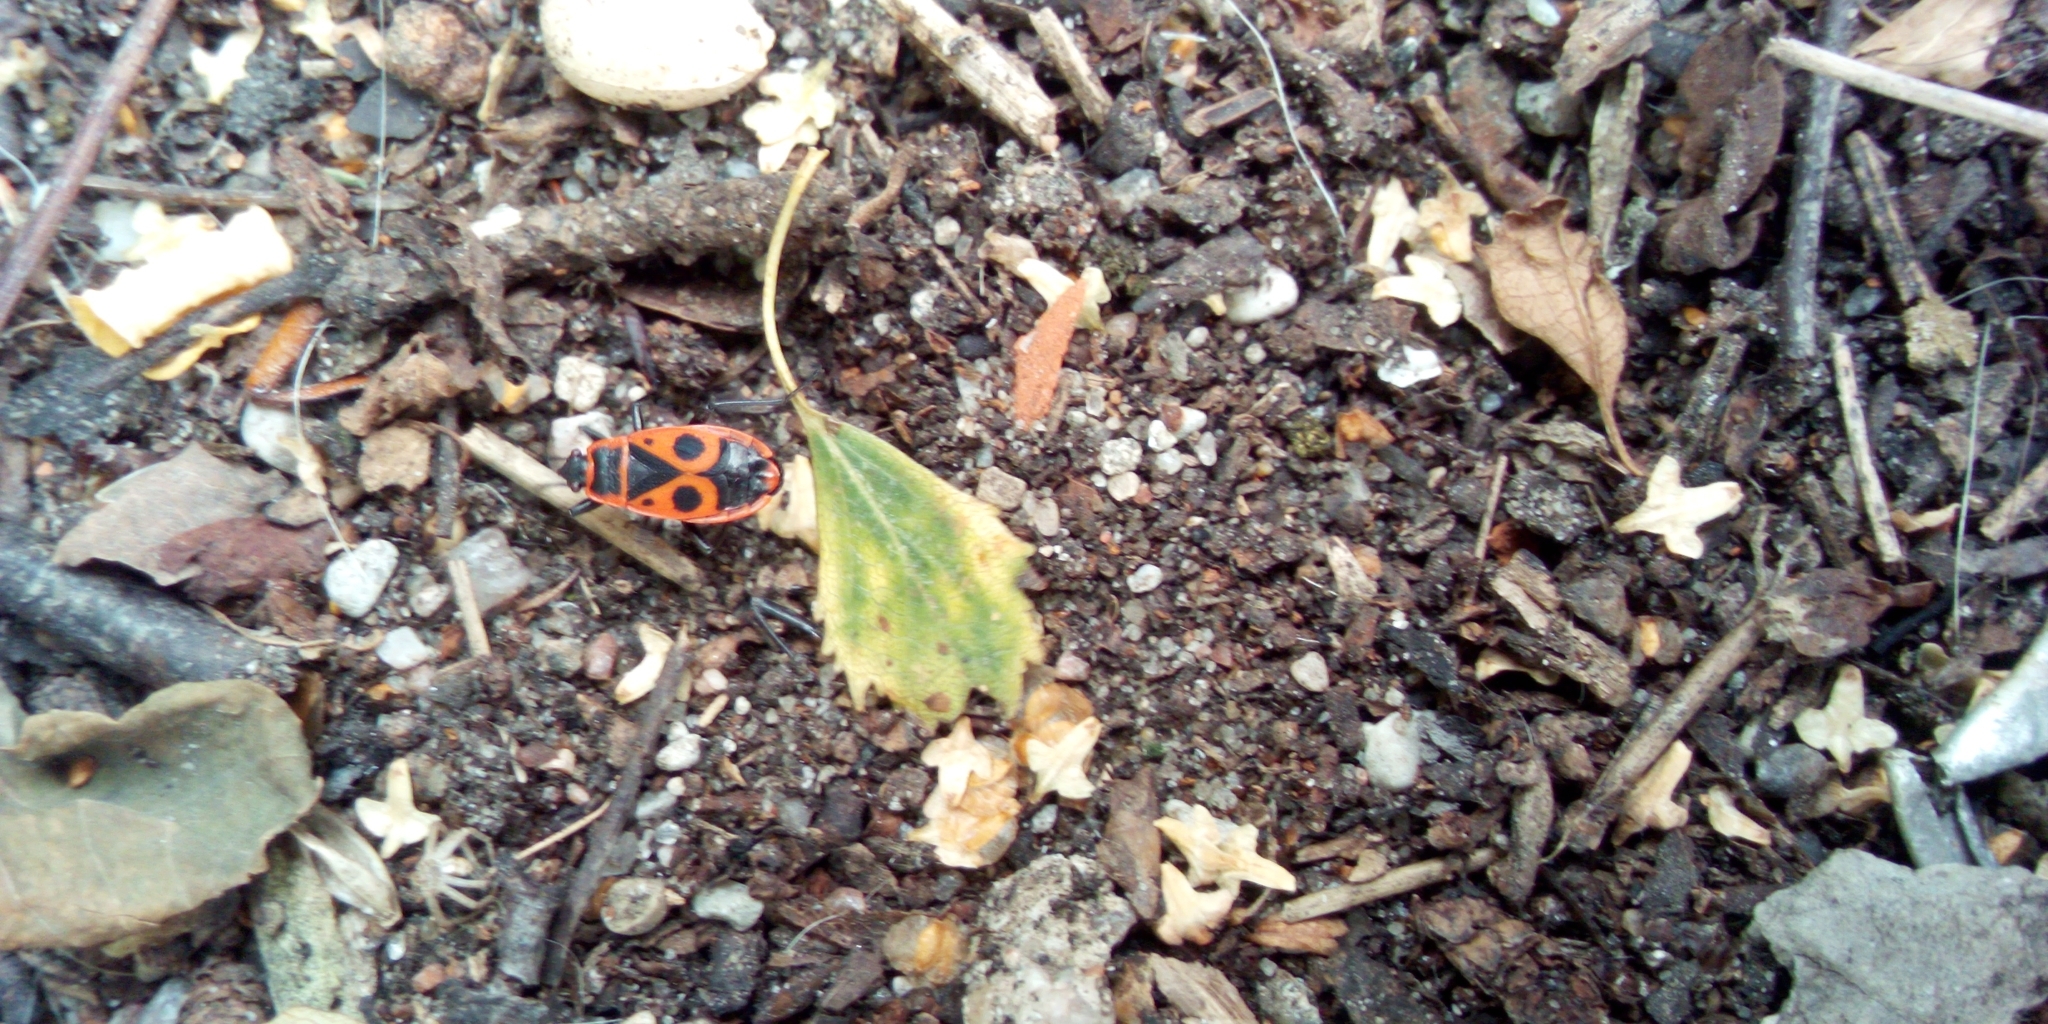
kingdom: Animalia
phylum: Arthropoda
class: Insecta
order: Hemiptera
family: Pyrrhocoridae
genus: Pyrrhocoris
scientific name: Pyrrhocoris apterus
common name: Firebug
